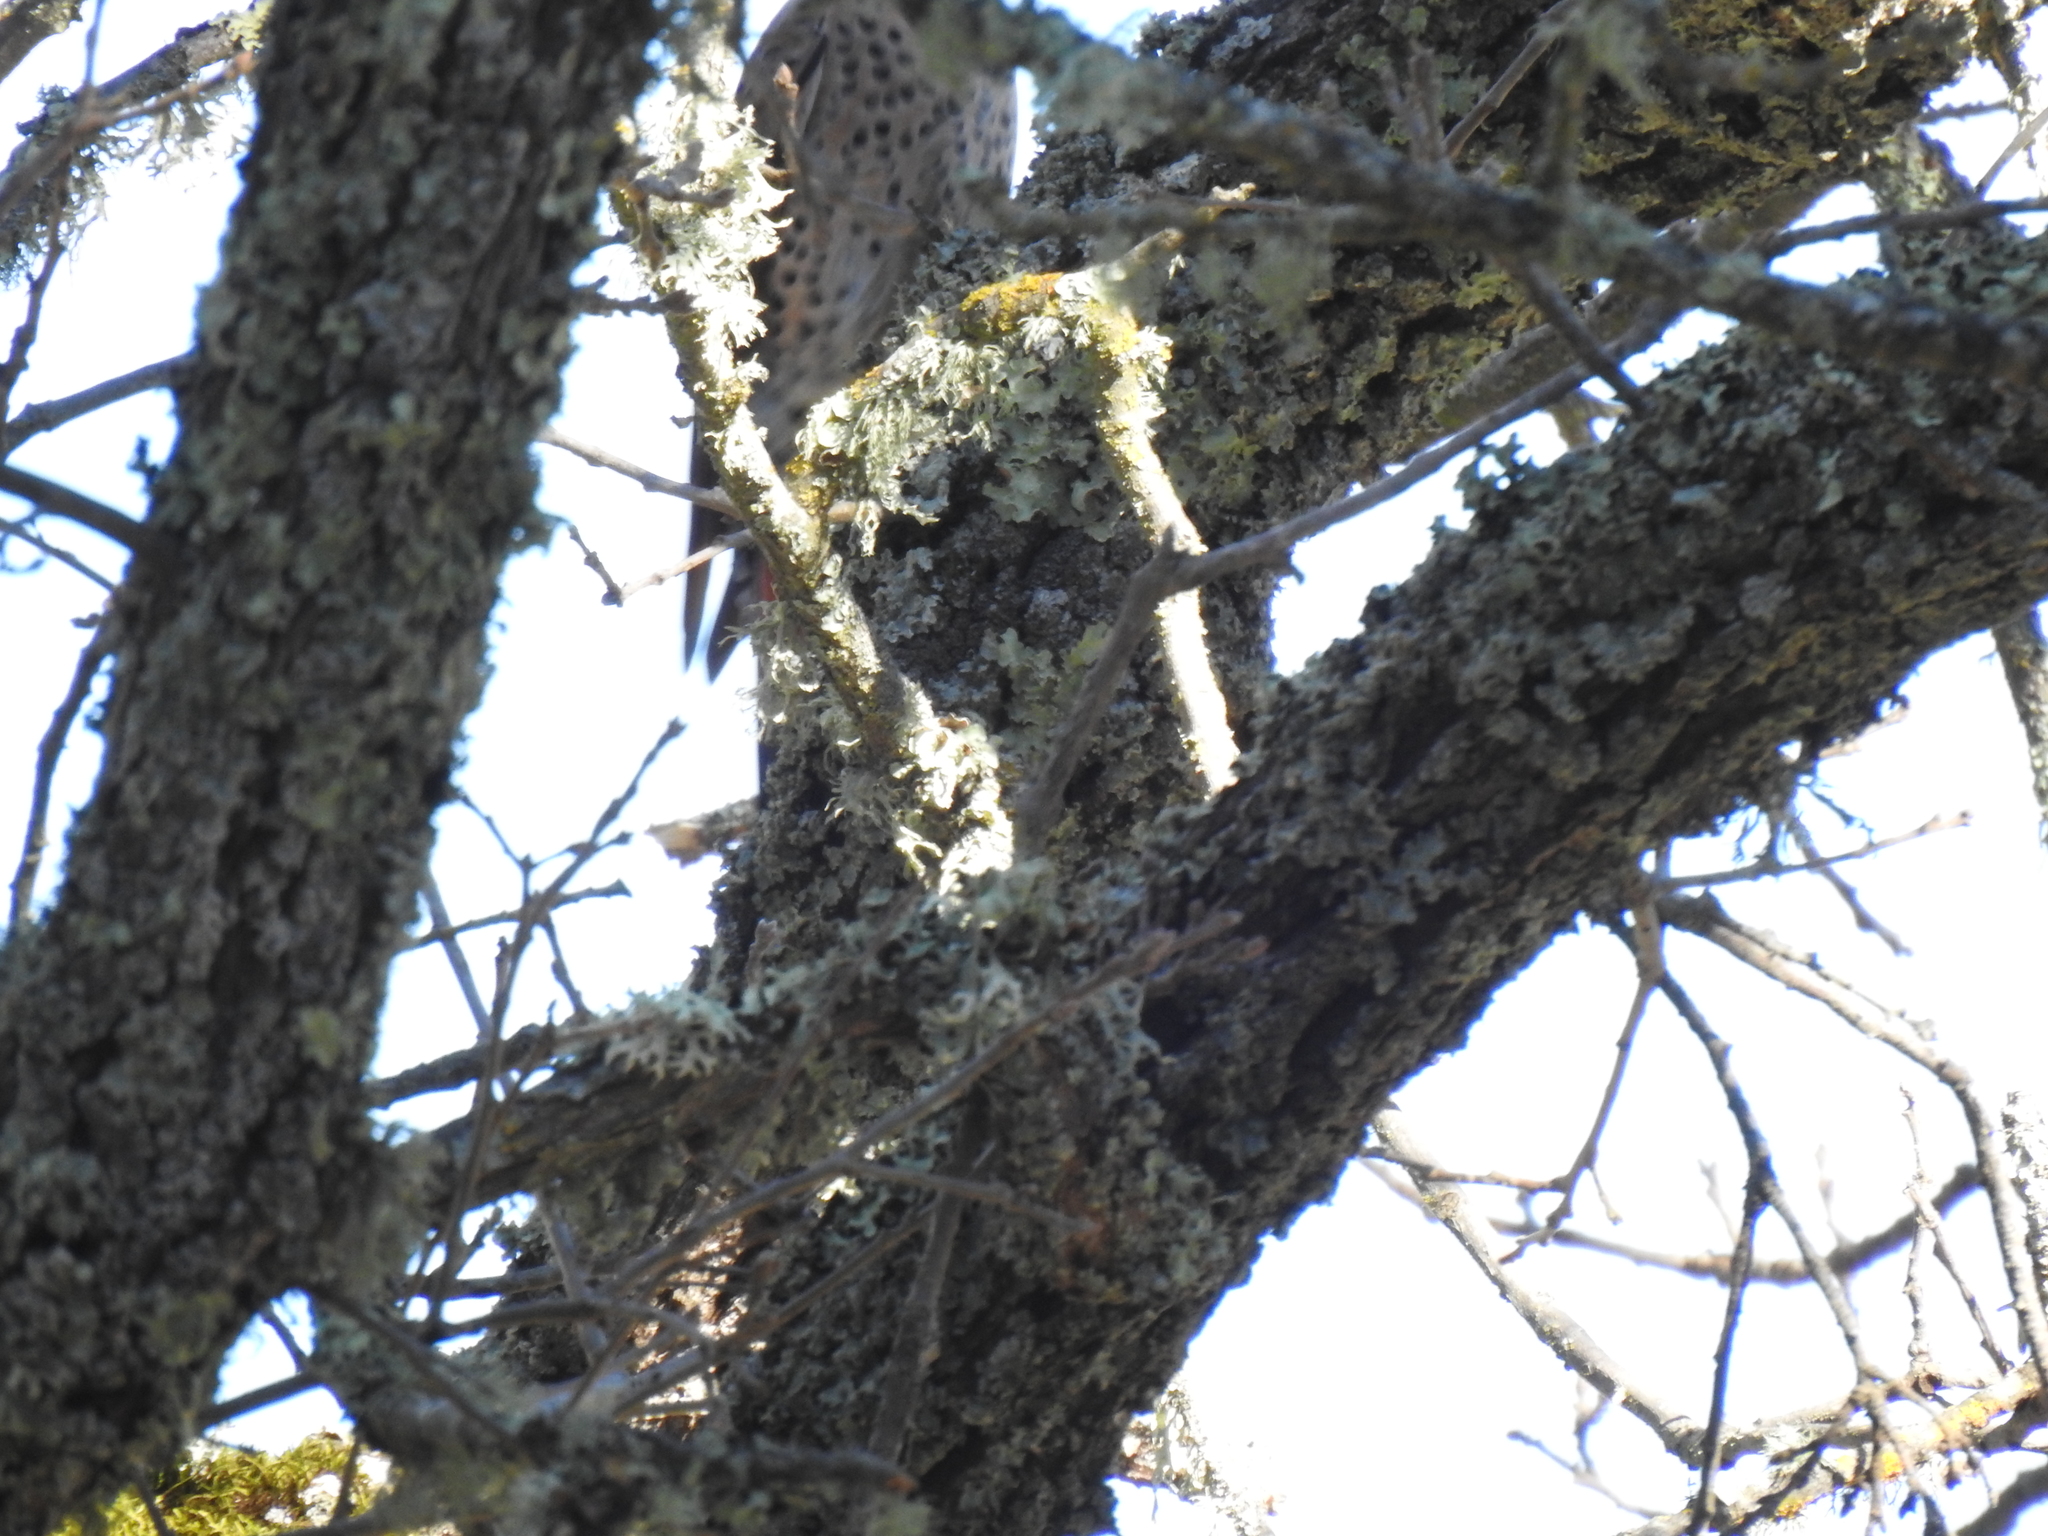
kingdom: Animalia
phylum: Chordata
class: Aves
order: Piciformes
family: Picidae
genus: Colaptes
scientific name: Colaptes auratus
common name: Northern flicker
